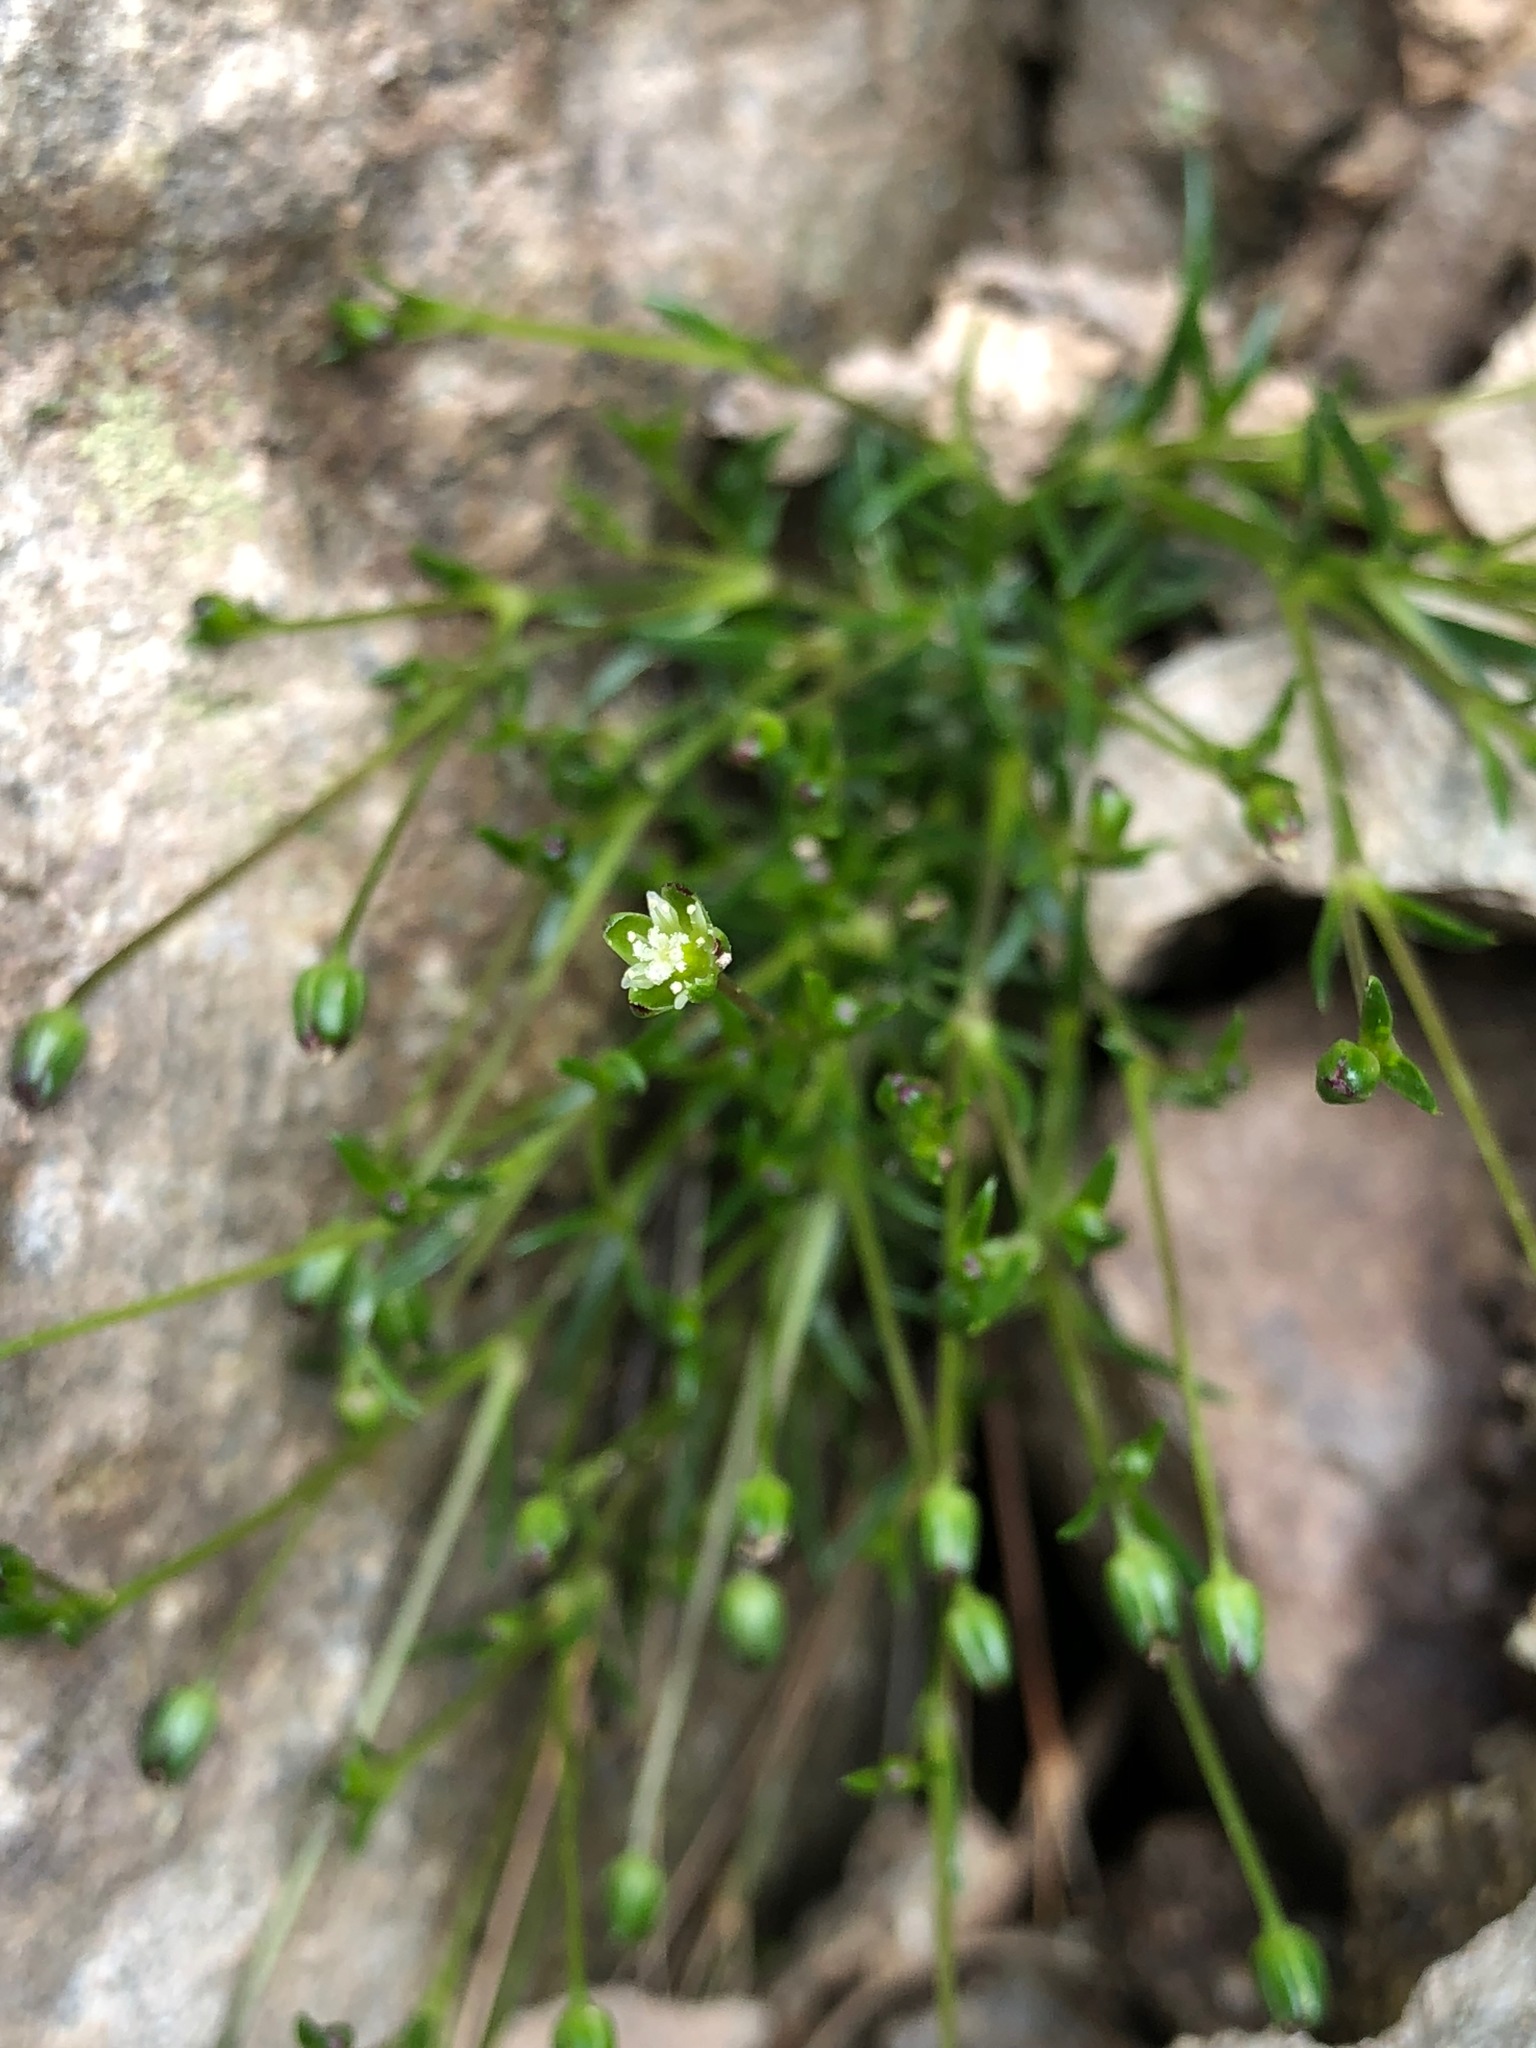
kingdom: Plantae
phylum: Tracheophyta
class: Magnoliopsida
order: Caryophyllales
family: Caryophyllaceae
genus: Sagina
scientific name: Sagina saginoides
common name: Alpine pearlwort
